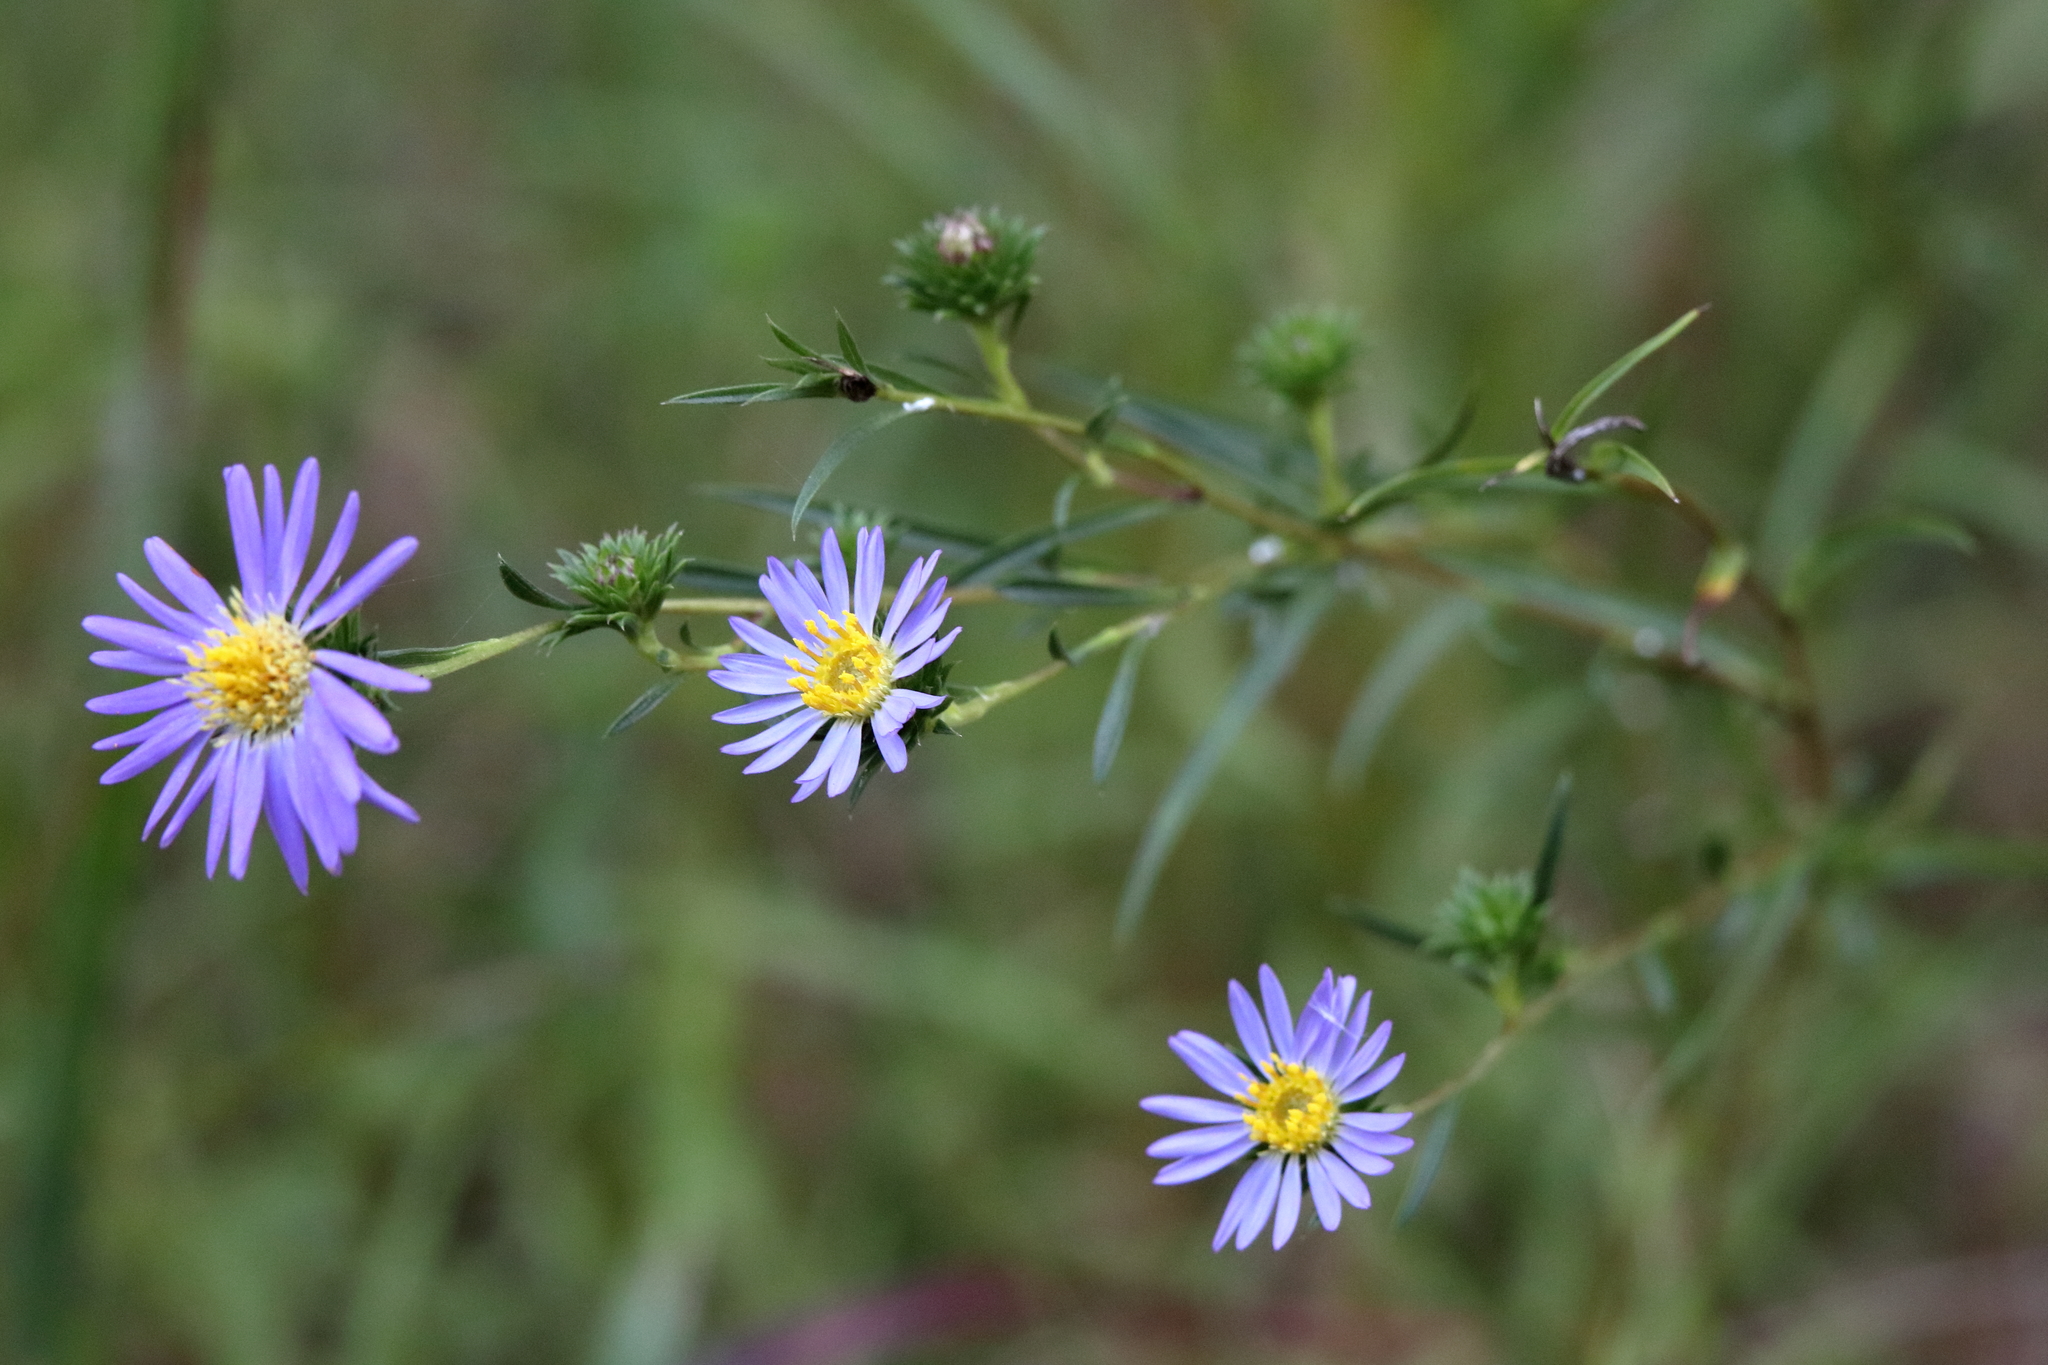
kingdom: Plantae
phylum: Tracheophyta
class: Magnoliopsida
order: Asterales
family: Asteraceae
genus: Eurybia
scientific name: Eurybia hemispherica
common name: Showy aster
